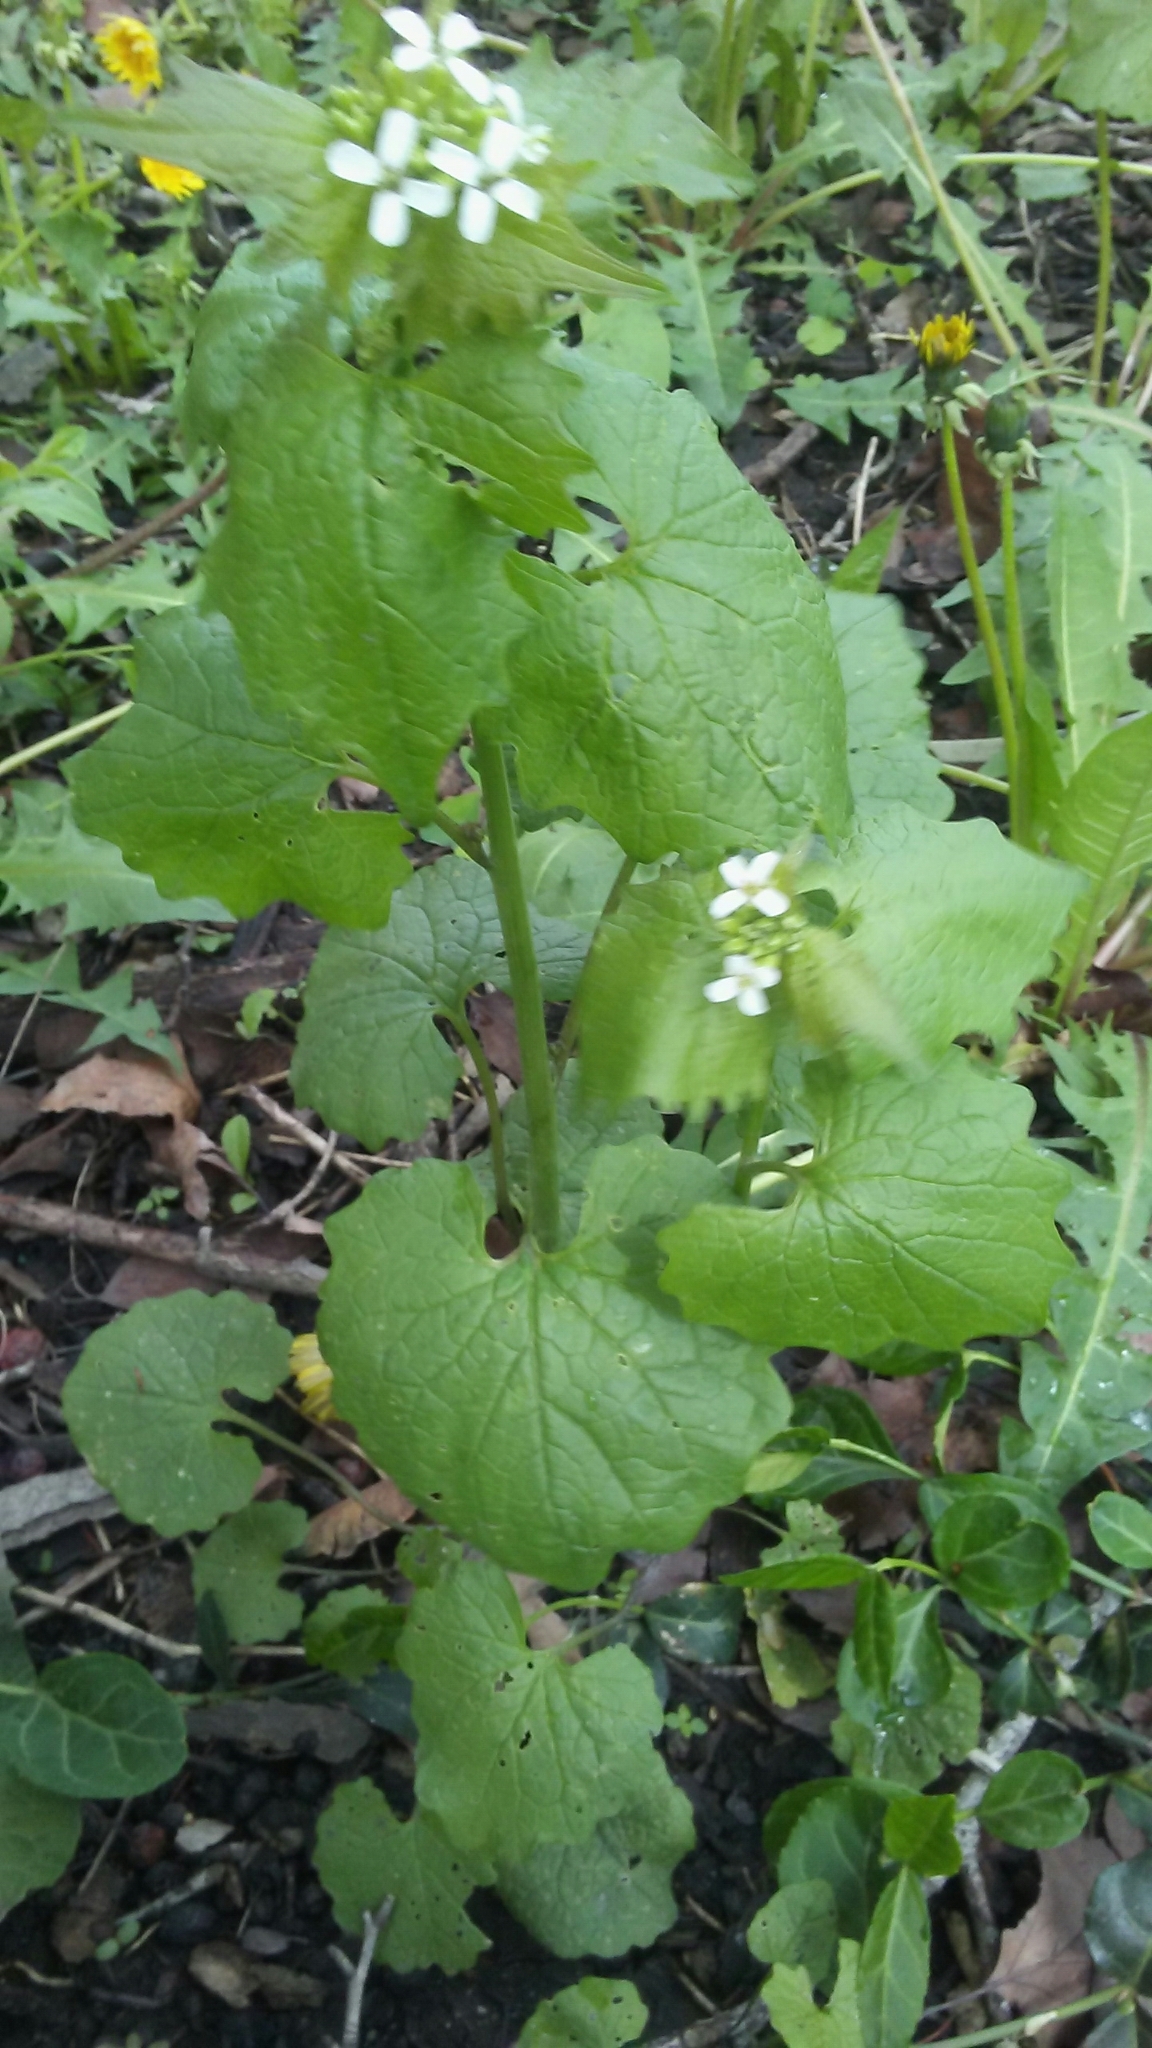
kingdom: Plantae
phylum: Tracheophyta
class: Magnoliopsida
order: Brassicales
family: Brassicaceae
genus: Alliaria
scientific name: Alliaria petiolata
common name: Garlic mustard
